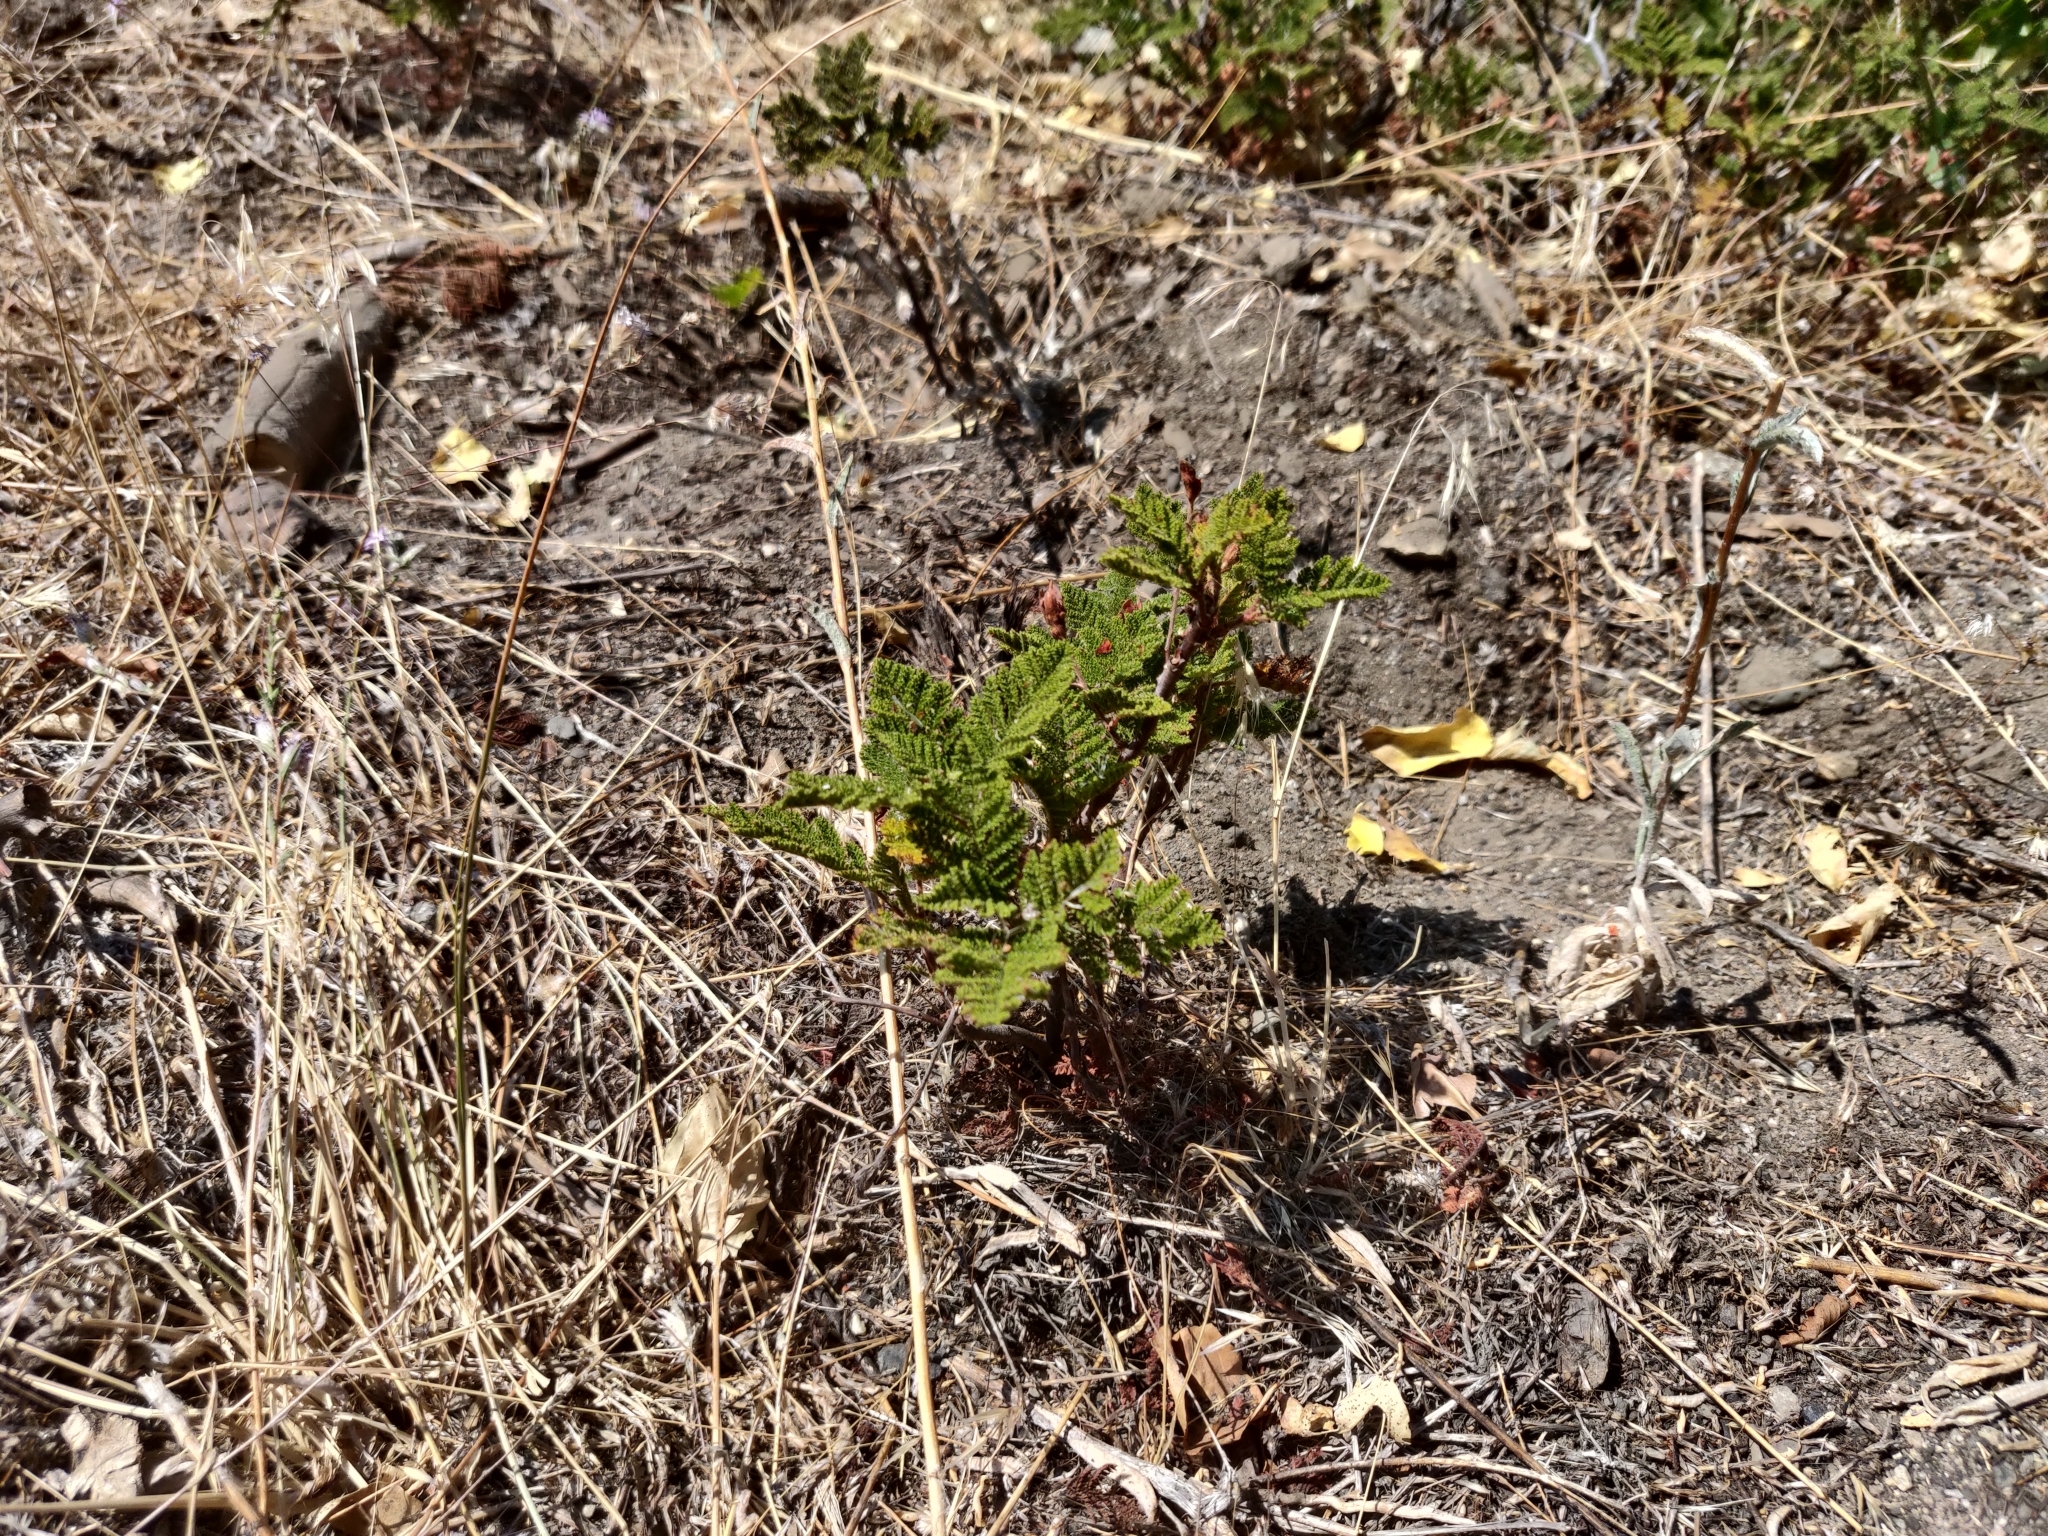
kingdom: Plantae
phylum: Tracheophyta
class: Magnoliopsida
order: Rosales
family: Rosaceae
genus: Chamaebatia
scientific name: Chamaebatia foliolosa
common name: Mountain misery
